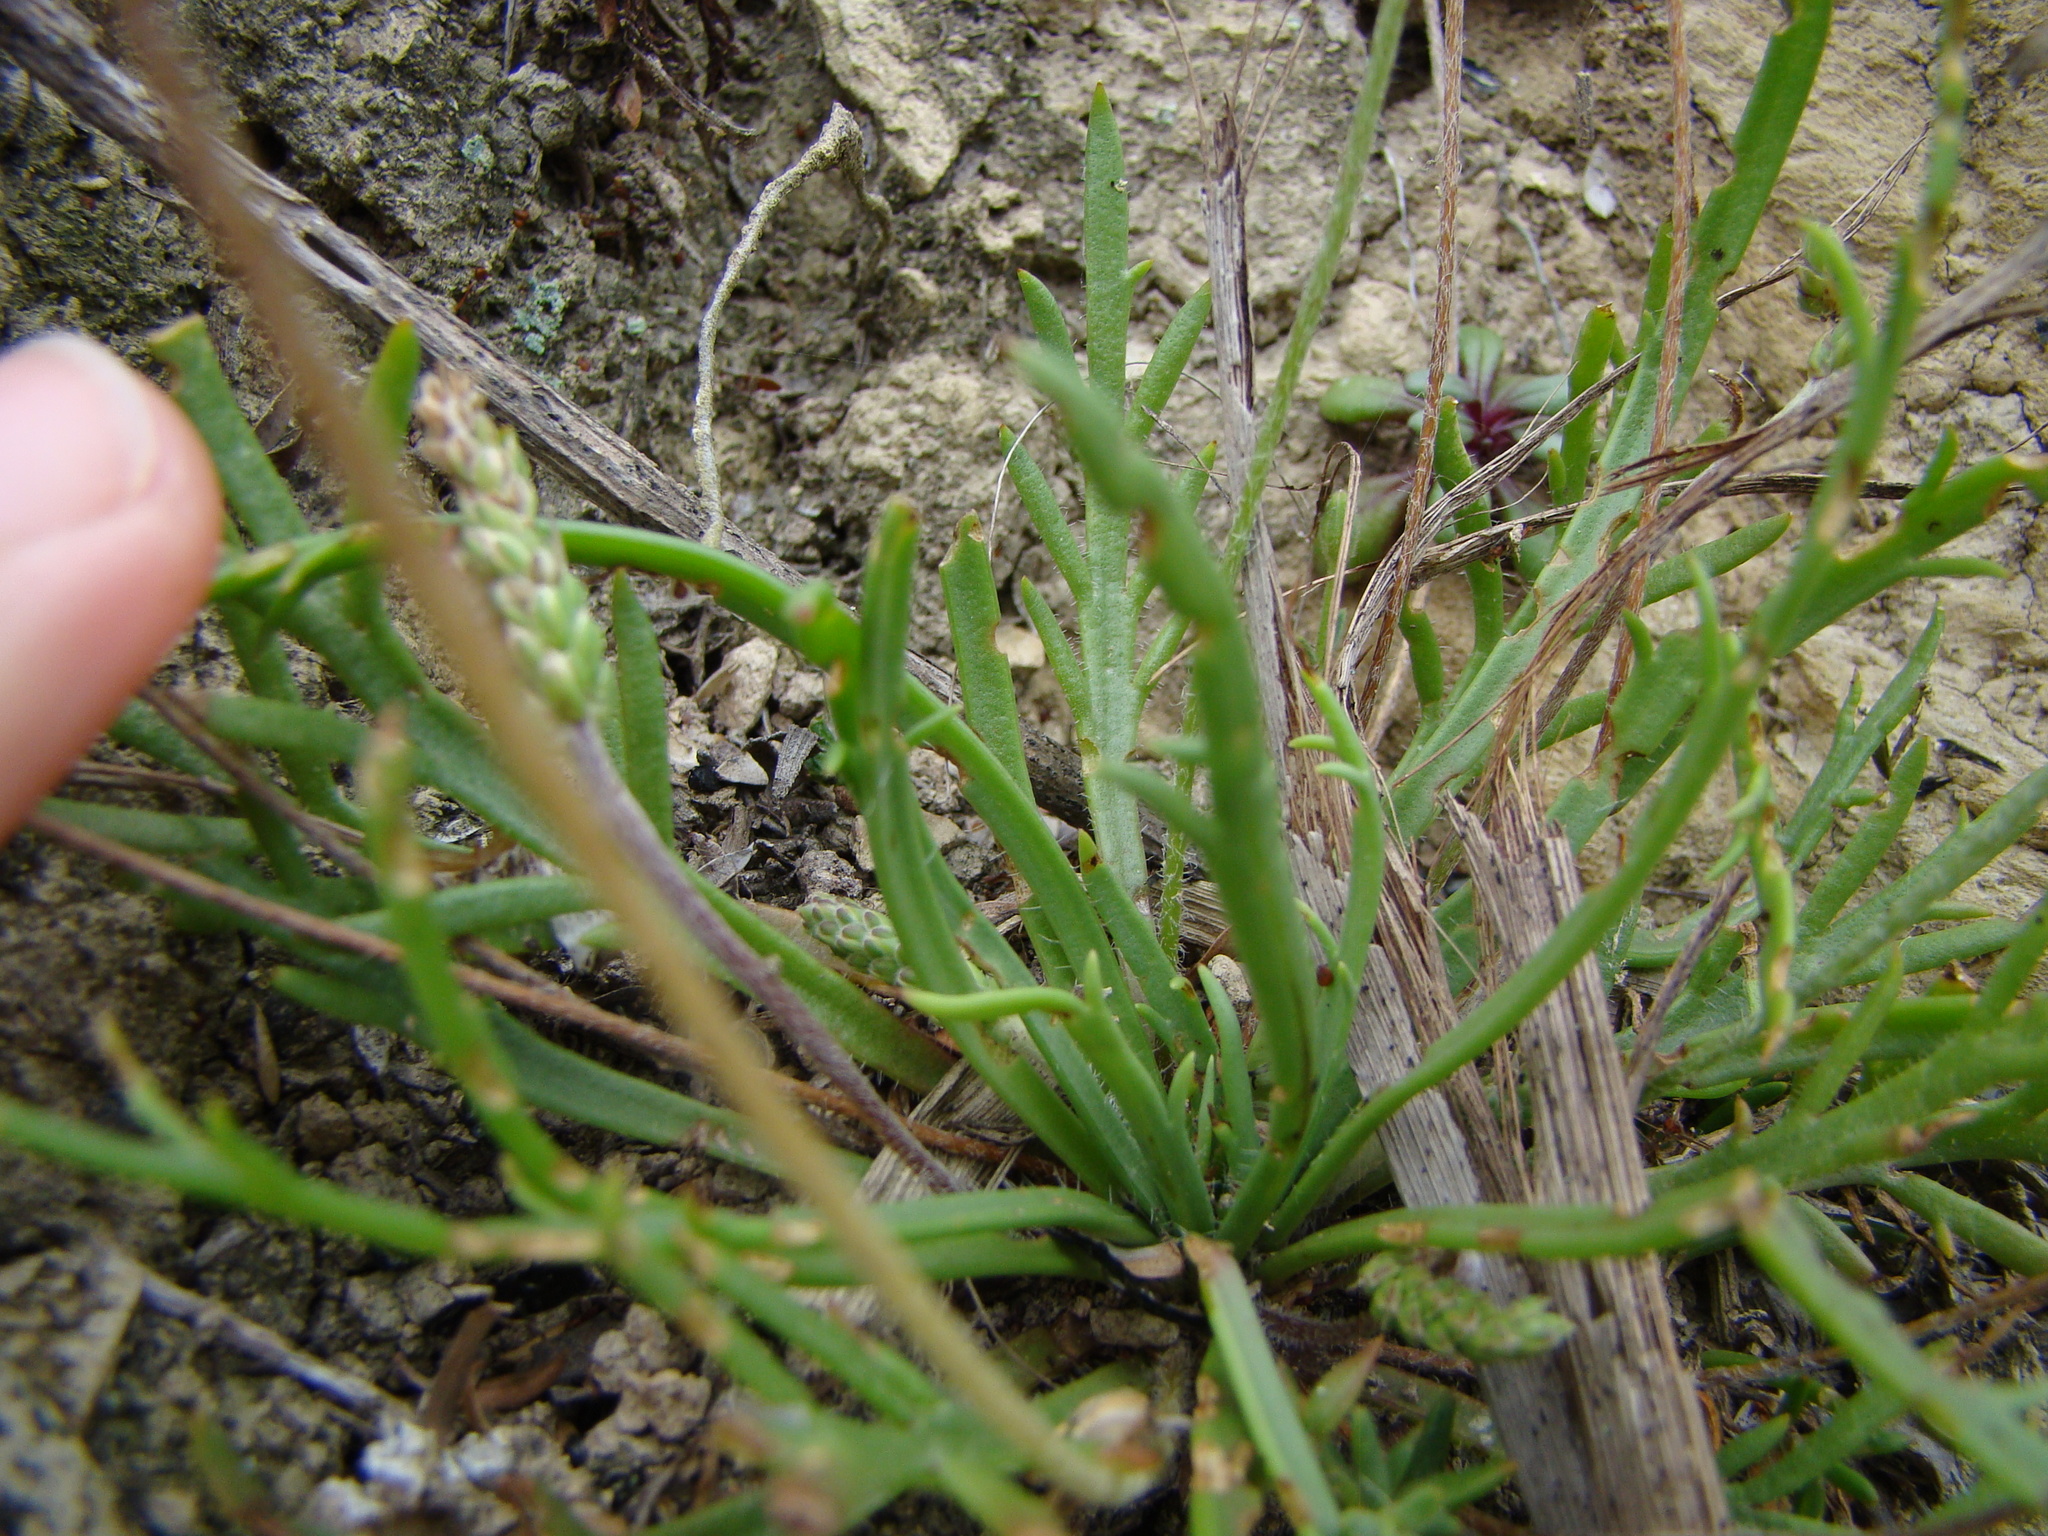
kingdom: Plantae
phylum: Tracheophyta
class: Magnoliopsida
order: Lamiales
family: Plantaginaceae
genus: Plantago
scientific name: Plantago coronopus
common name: Buck's-horn plantain
